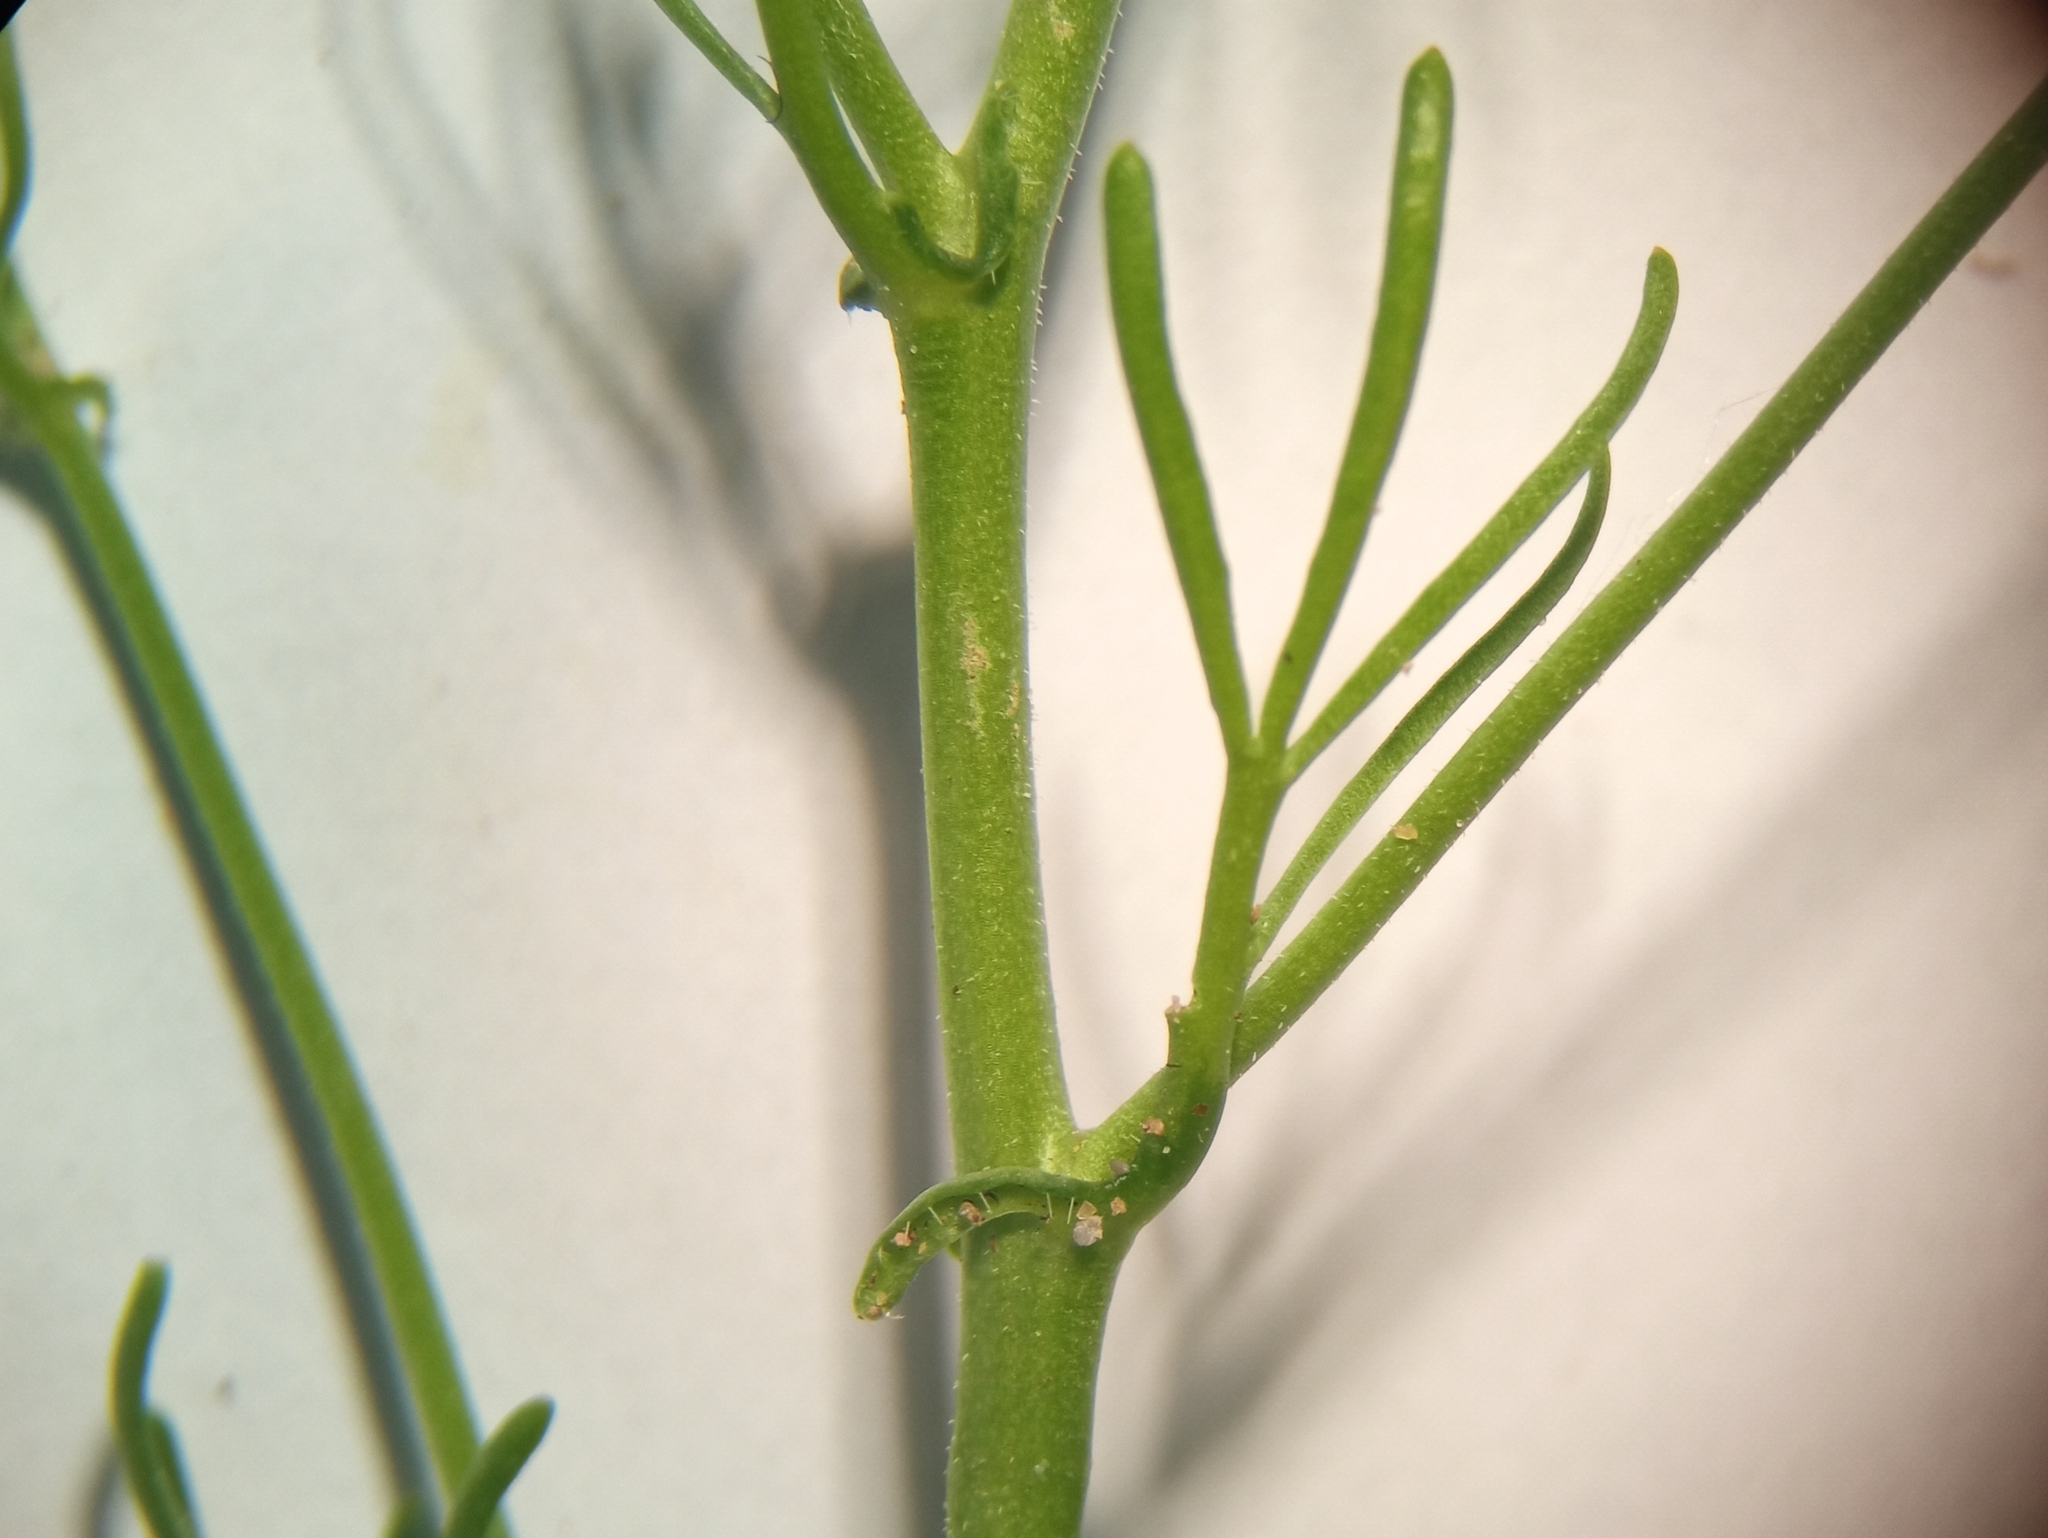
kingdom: Plantae
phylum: Tracheophyta
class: Magnoliopsida
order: Brassicales
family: Brassicaceae
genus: Rorippa
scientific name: Rorippa pyrenaica
